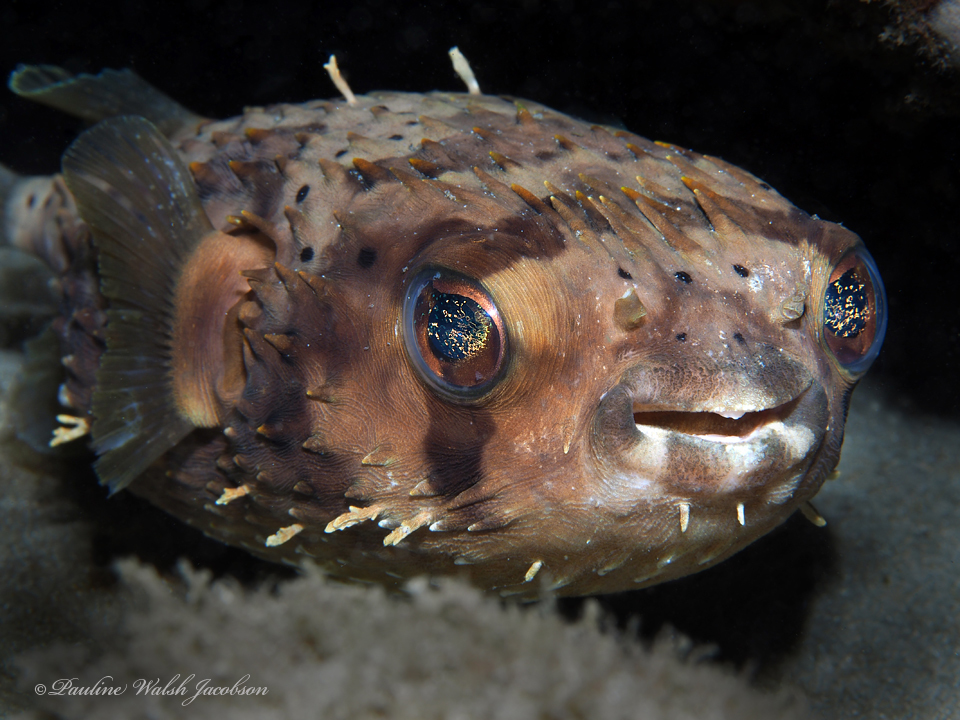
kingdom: Animalia
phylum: Chordata
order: Tetraodontiformes
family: Diodontidae
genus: Diodon
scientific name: Diodon holocanthus
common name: Balloonfish
